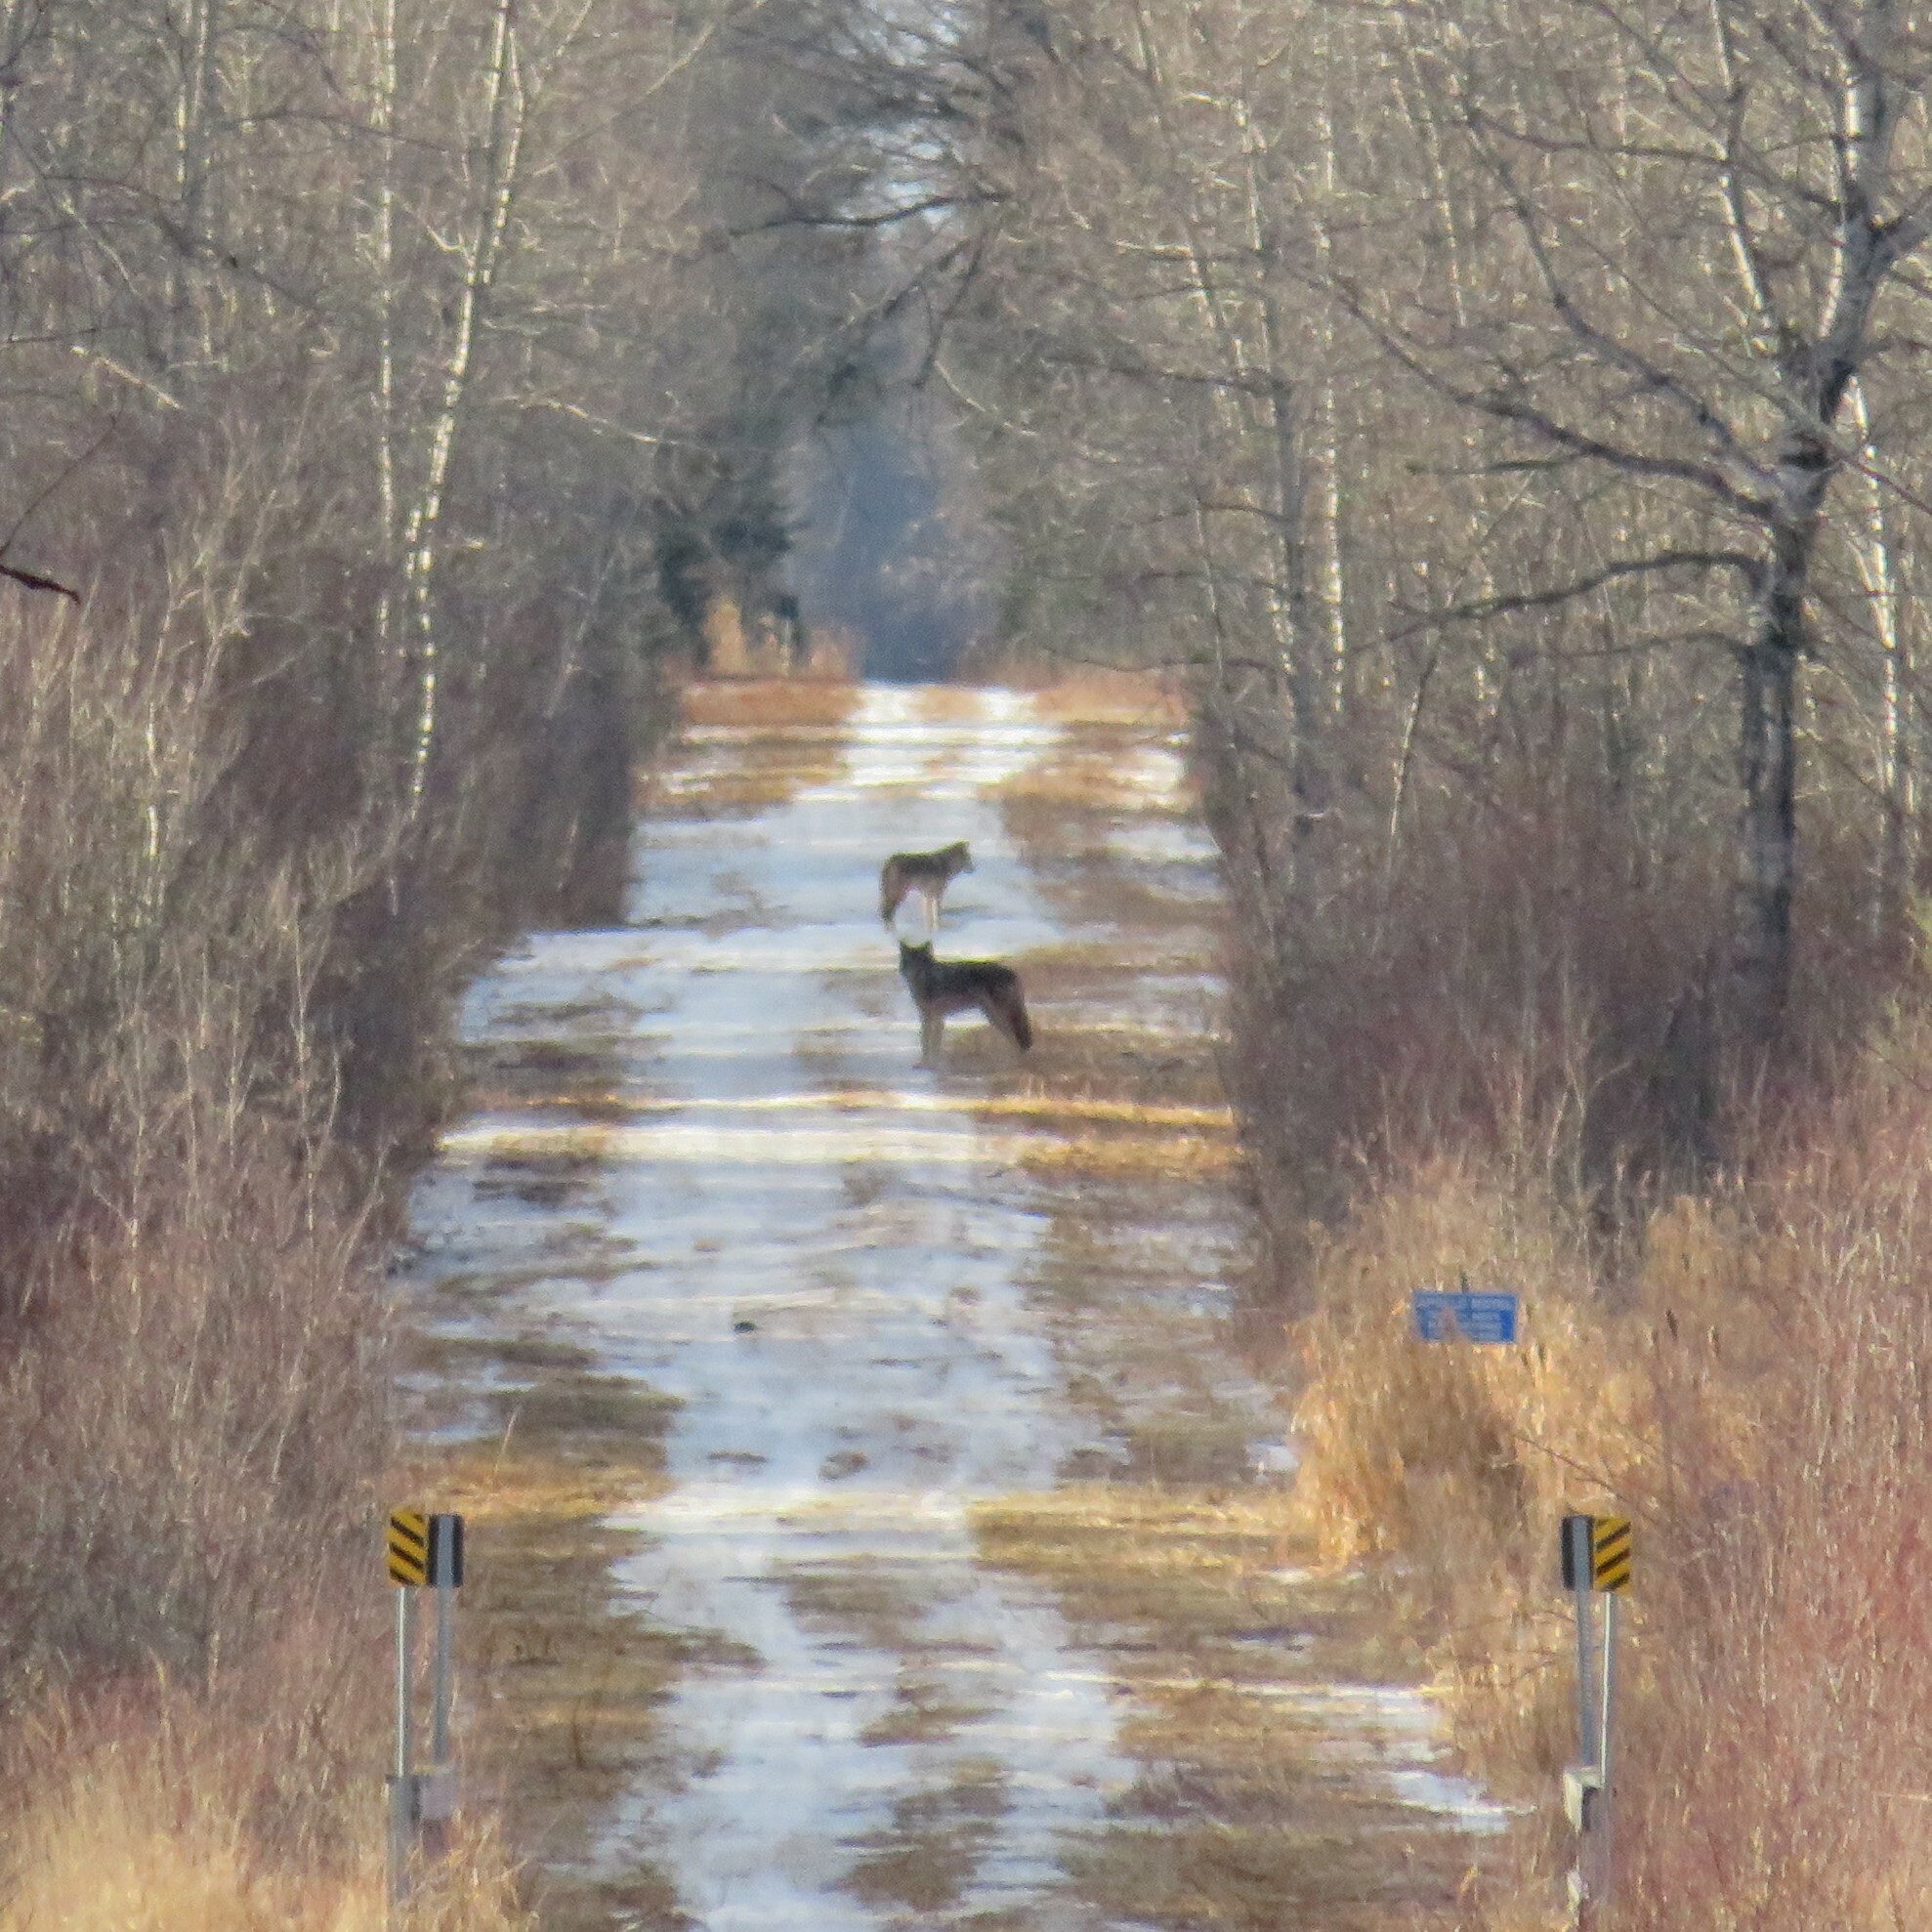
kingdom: Animalia
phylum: Chordata
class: Mammalia
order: Carnivora
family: Canidae
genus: Canis
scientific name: Canis lupus
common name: Gray wolf
